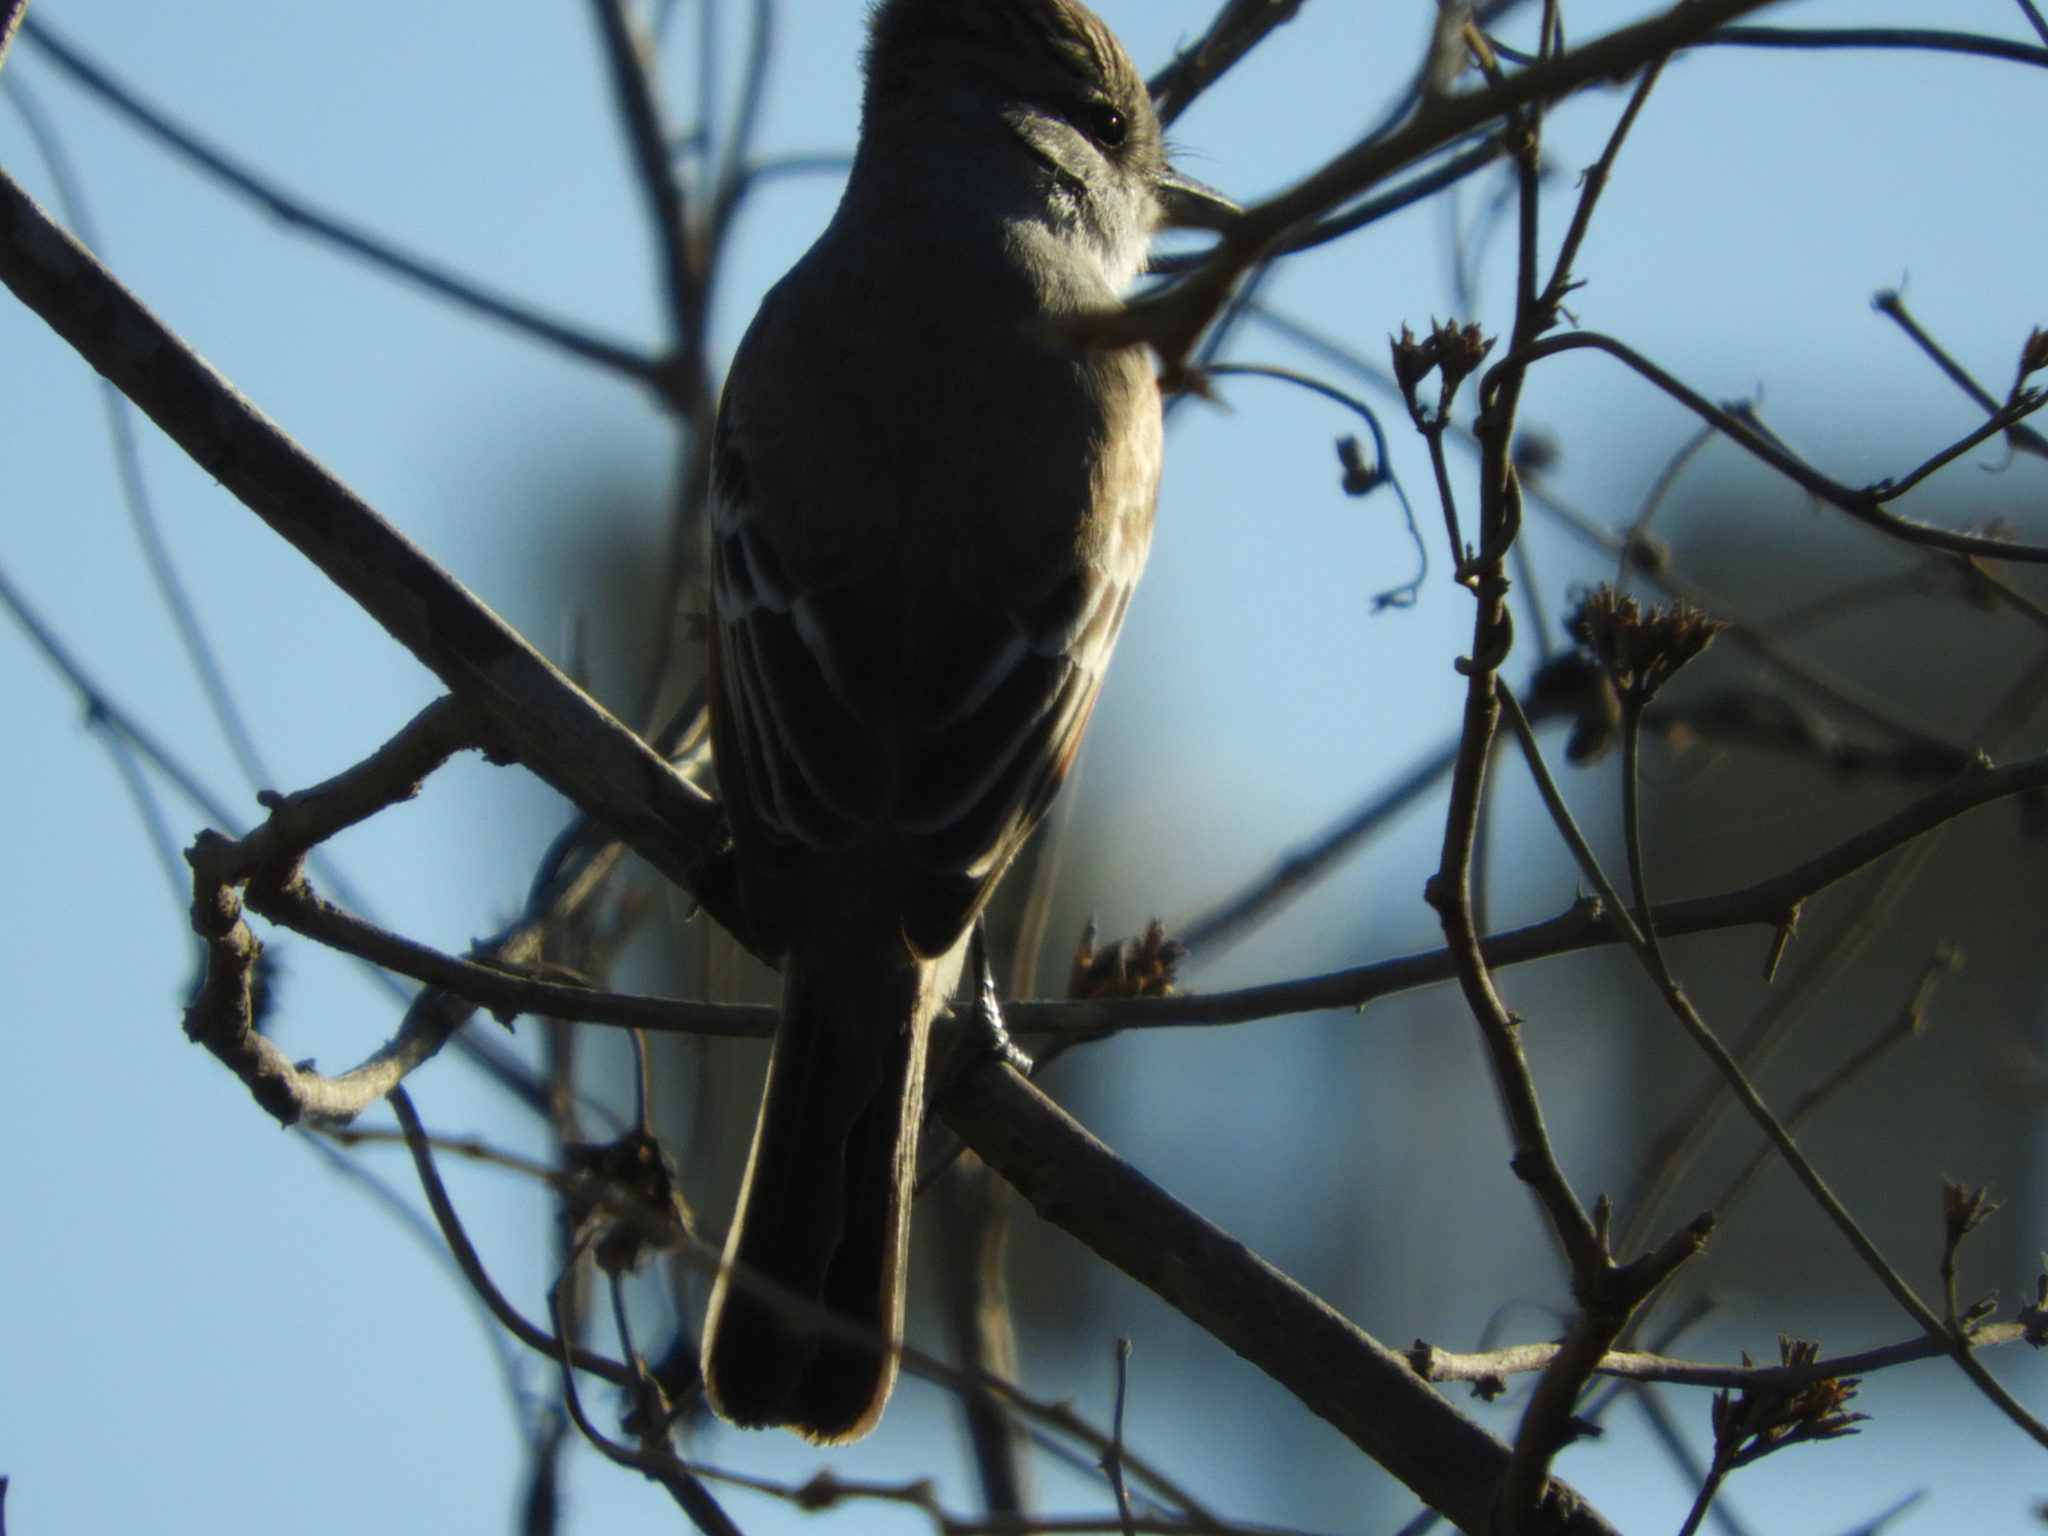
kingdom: Animalia
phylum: Chordata
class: Aves
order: Passeriformes
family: Tyrannidae
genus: Myiarchus
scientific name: Myiarchus
